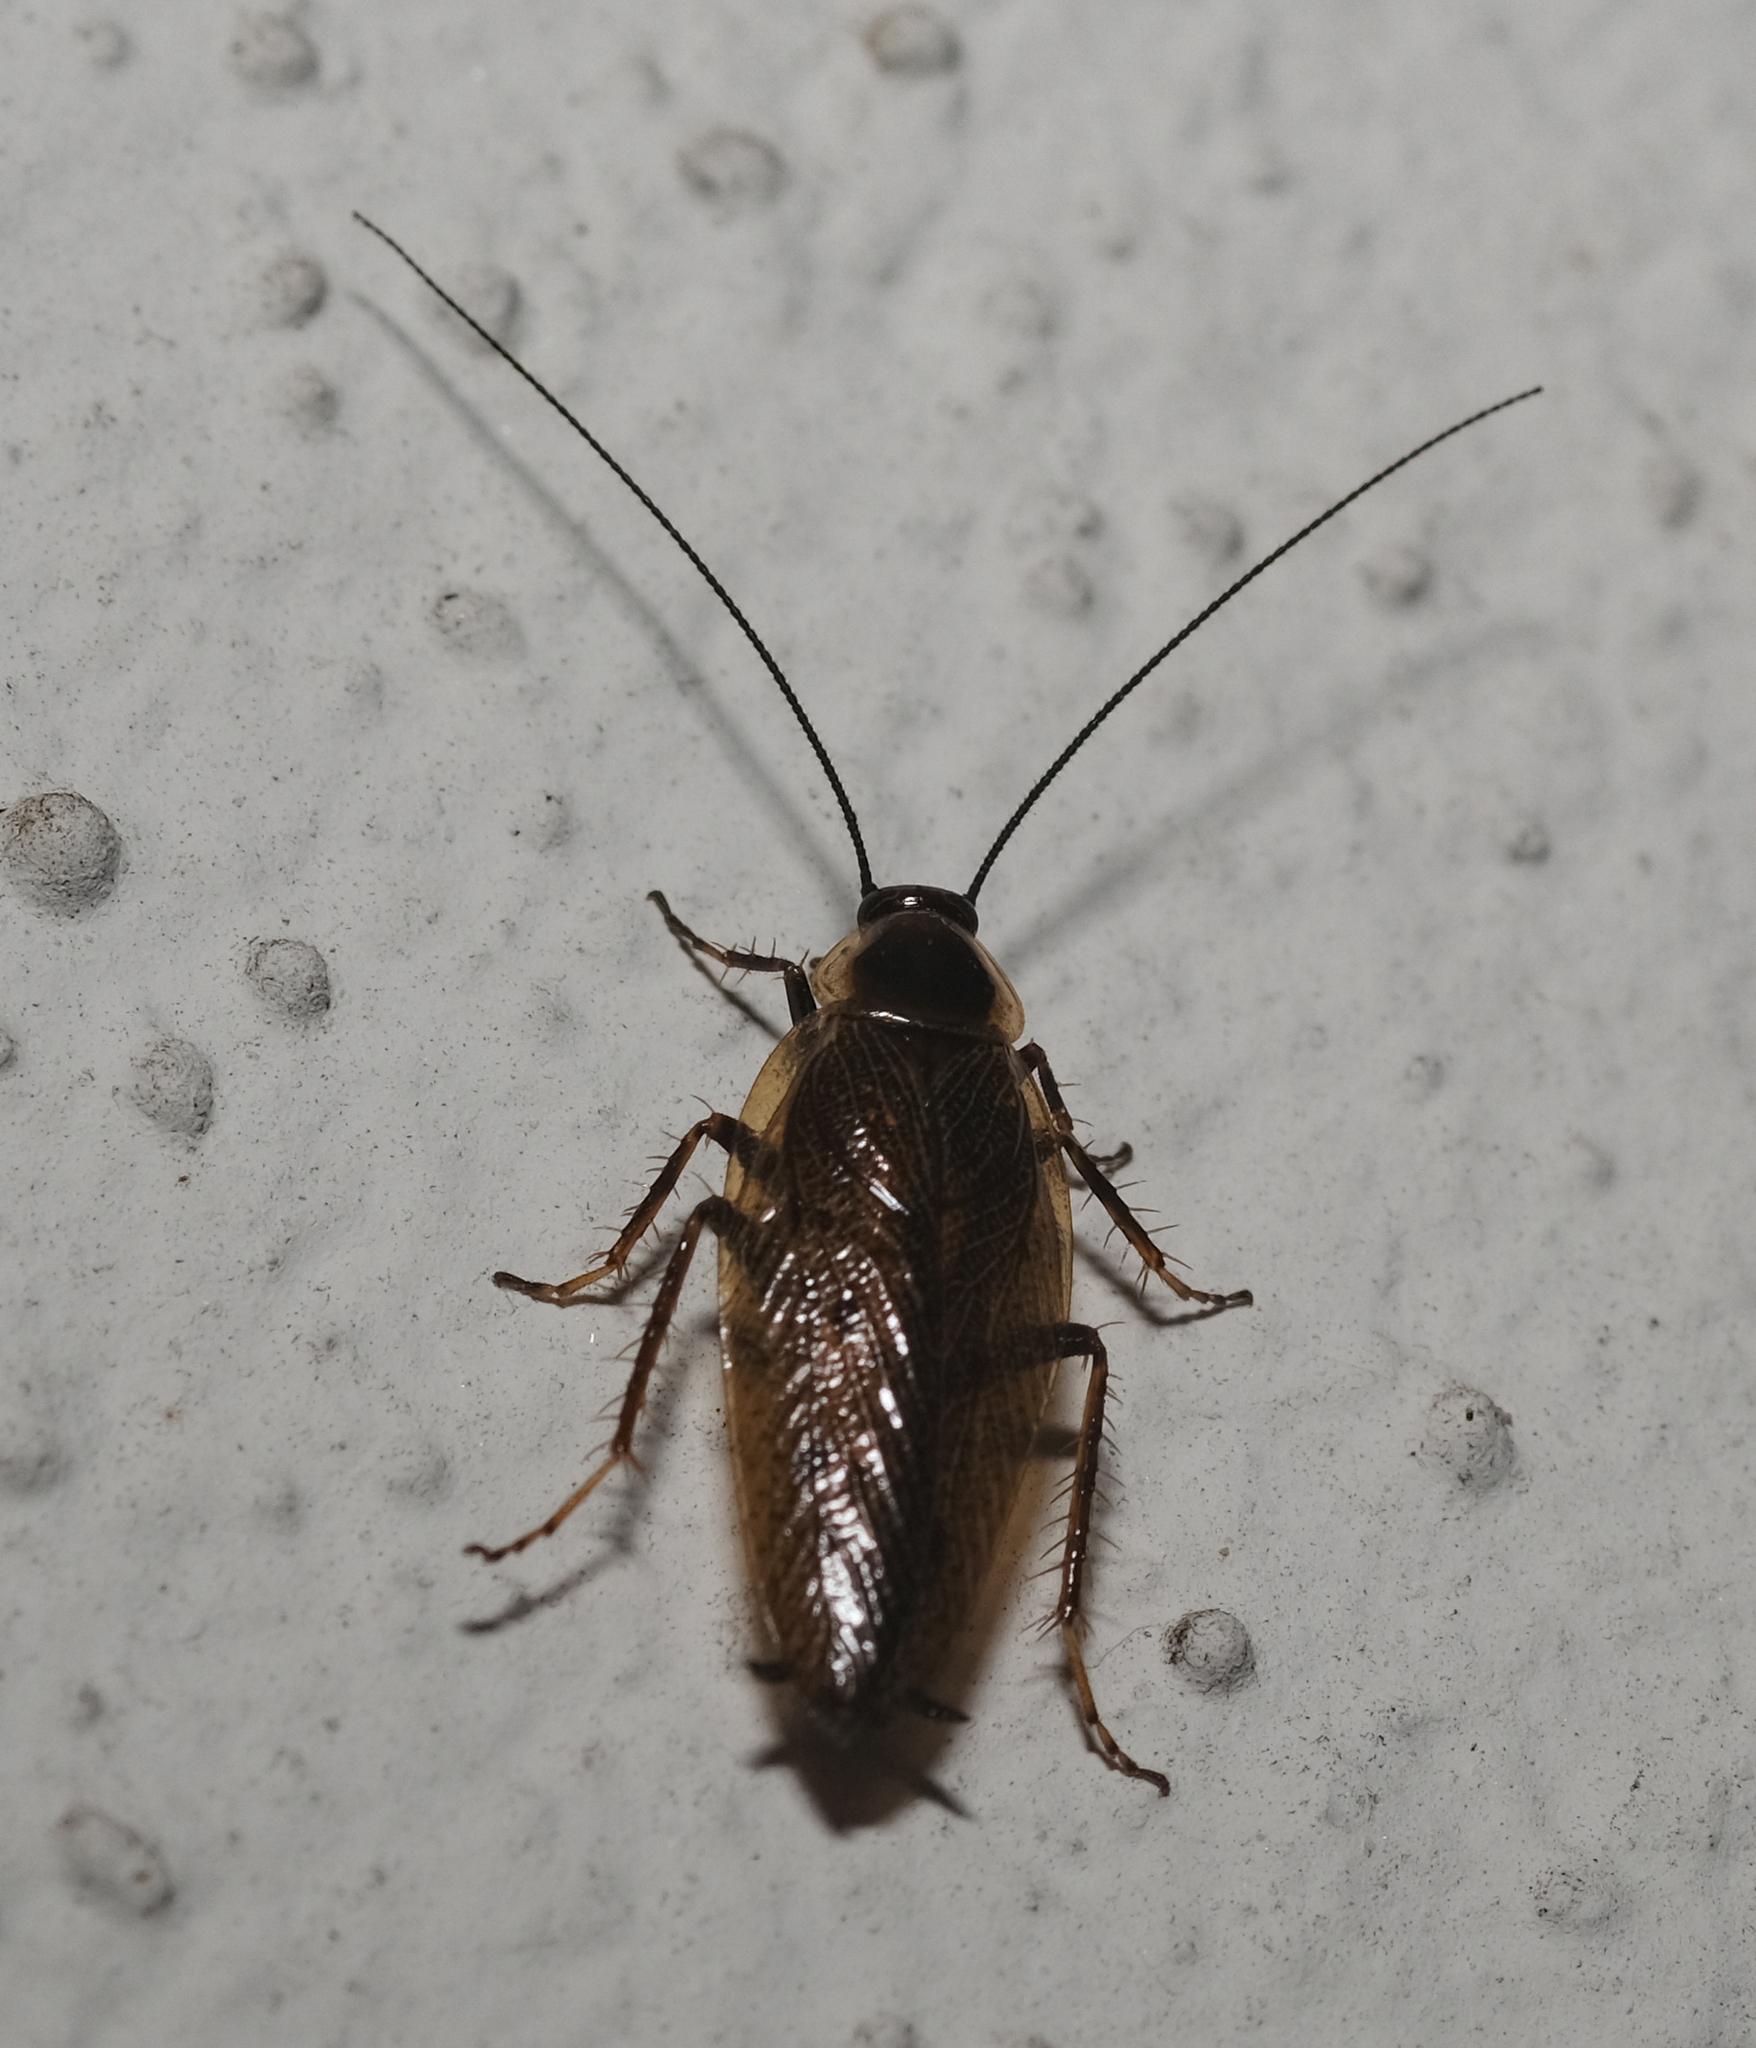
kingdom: Animalia
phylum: Arthropoda
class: Insecta
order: Blattodea
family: Ectobiidae
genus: Ectobius
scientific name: Ectobius lapponicus
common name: Dusky cockroach
